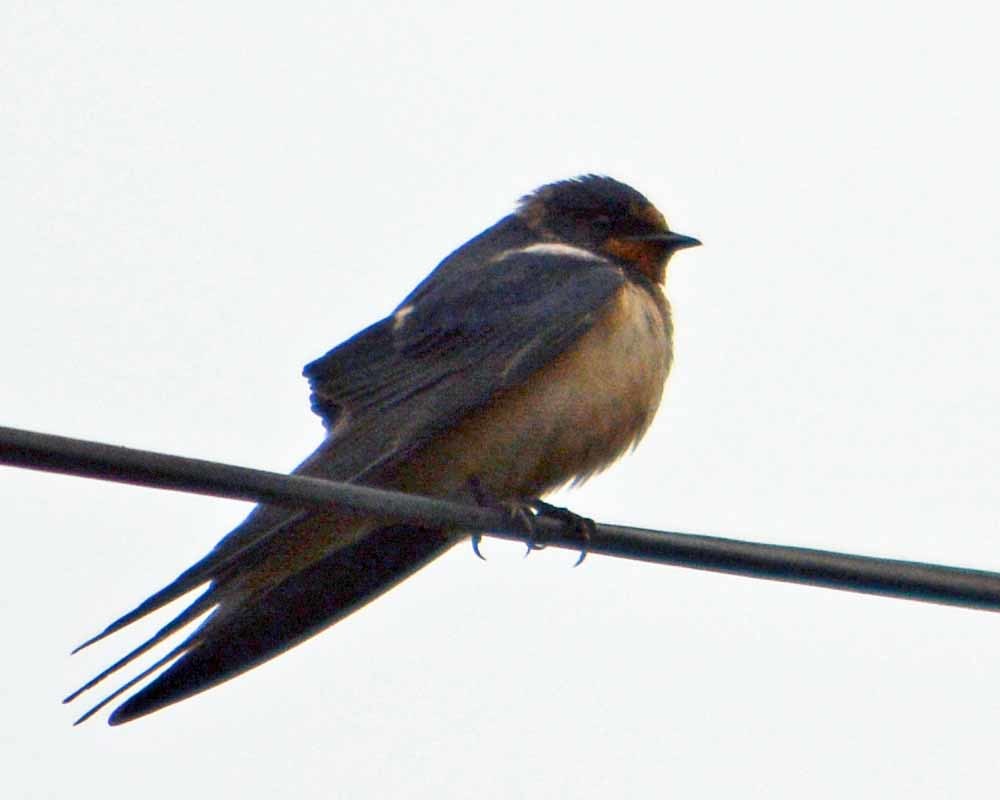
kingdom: Animalia
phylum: Chordata
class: Aves
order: Passeriformes
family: Hirundinidae
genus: Hirundo
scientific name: Hirundo rustica
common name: Barn swallow
